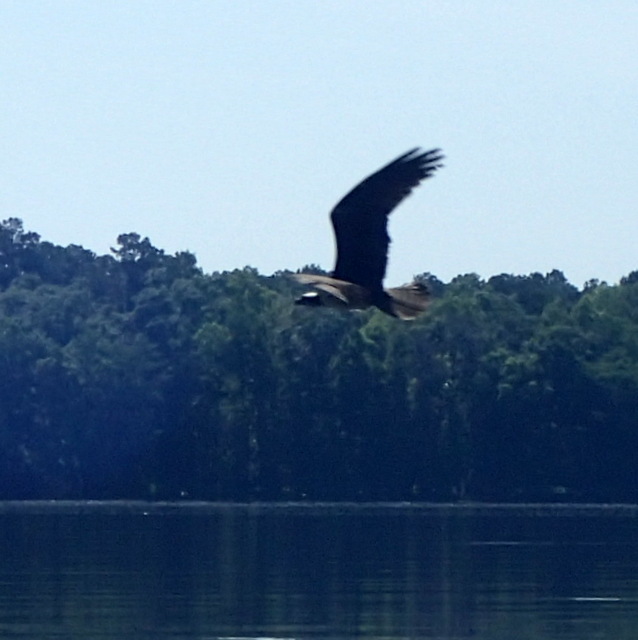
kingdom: Animalia
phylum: Chordata
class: Aves
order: Accipitriformes
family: Pandionidae
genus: Pandion
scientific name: Pandion haliaetus
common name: Osprey
